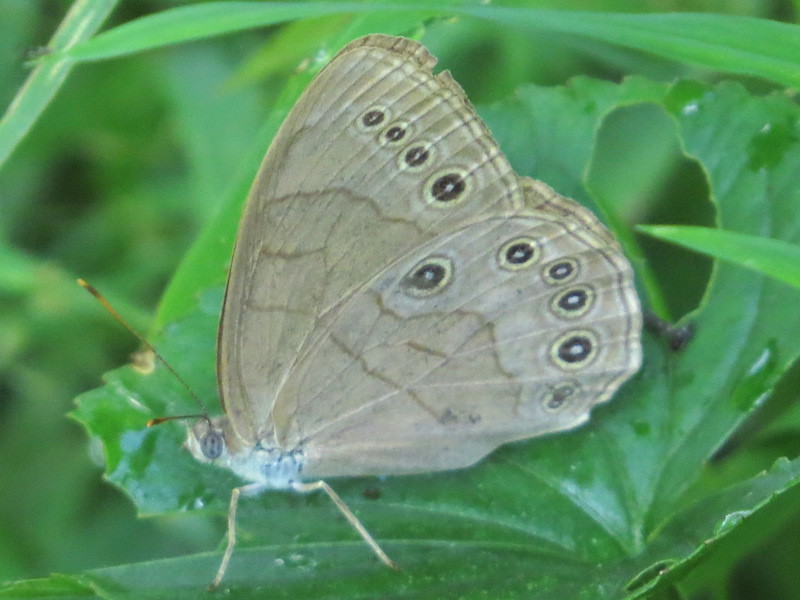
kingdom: Animalia
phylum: Arthropoda
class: Insecta
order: Lepidoptera
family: Nymphalidae
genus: Lethe
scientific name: Lethe eurydice
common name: Eyed brown
